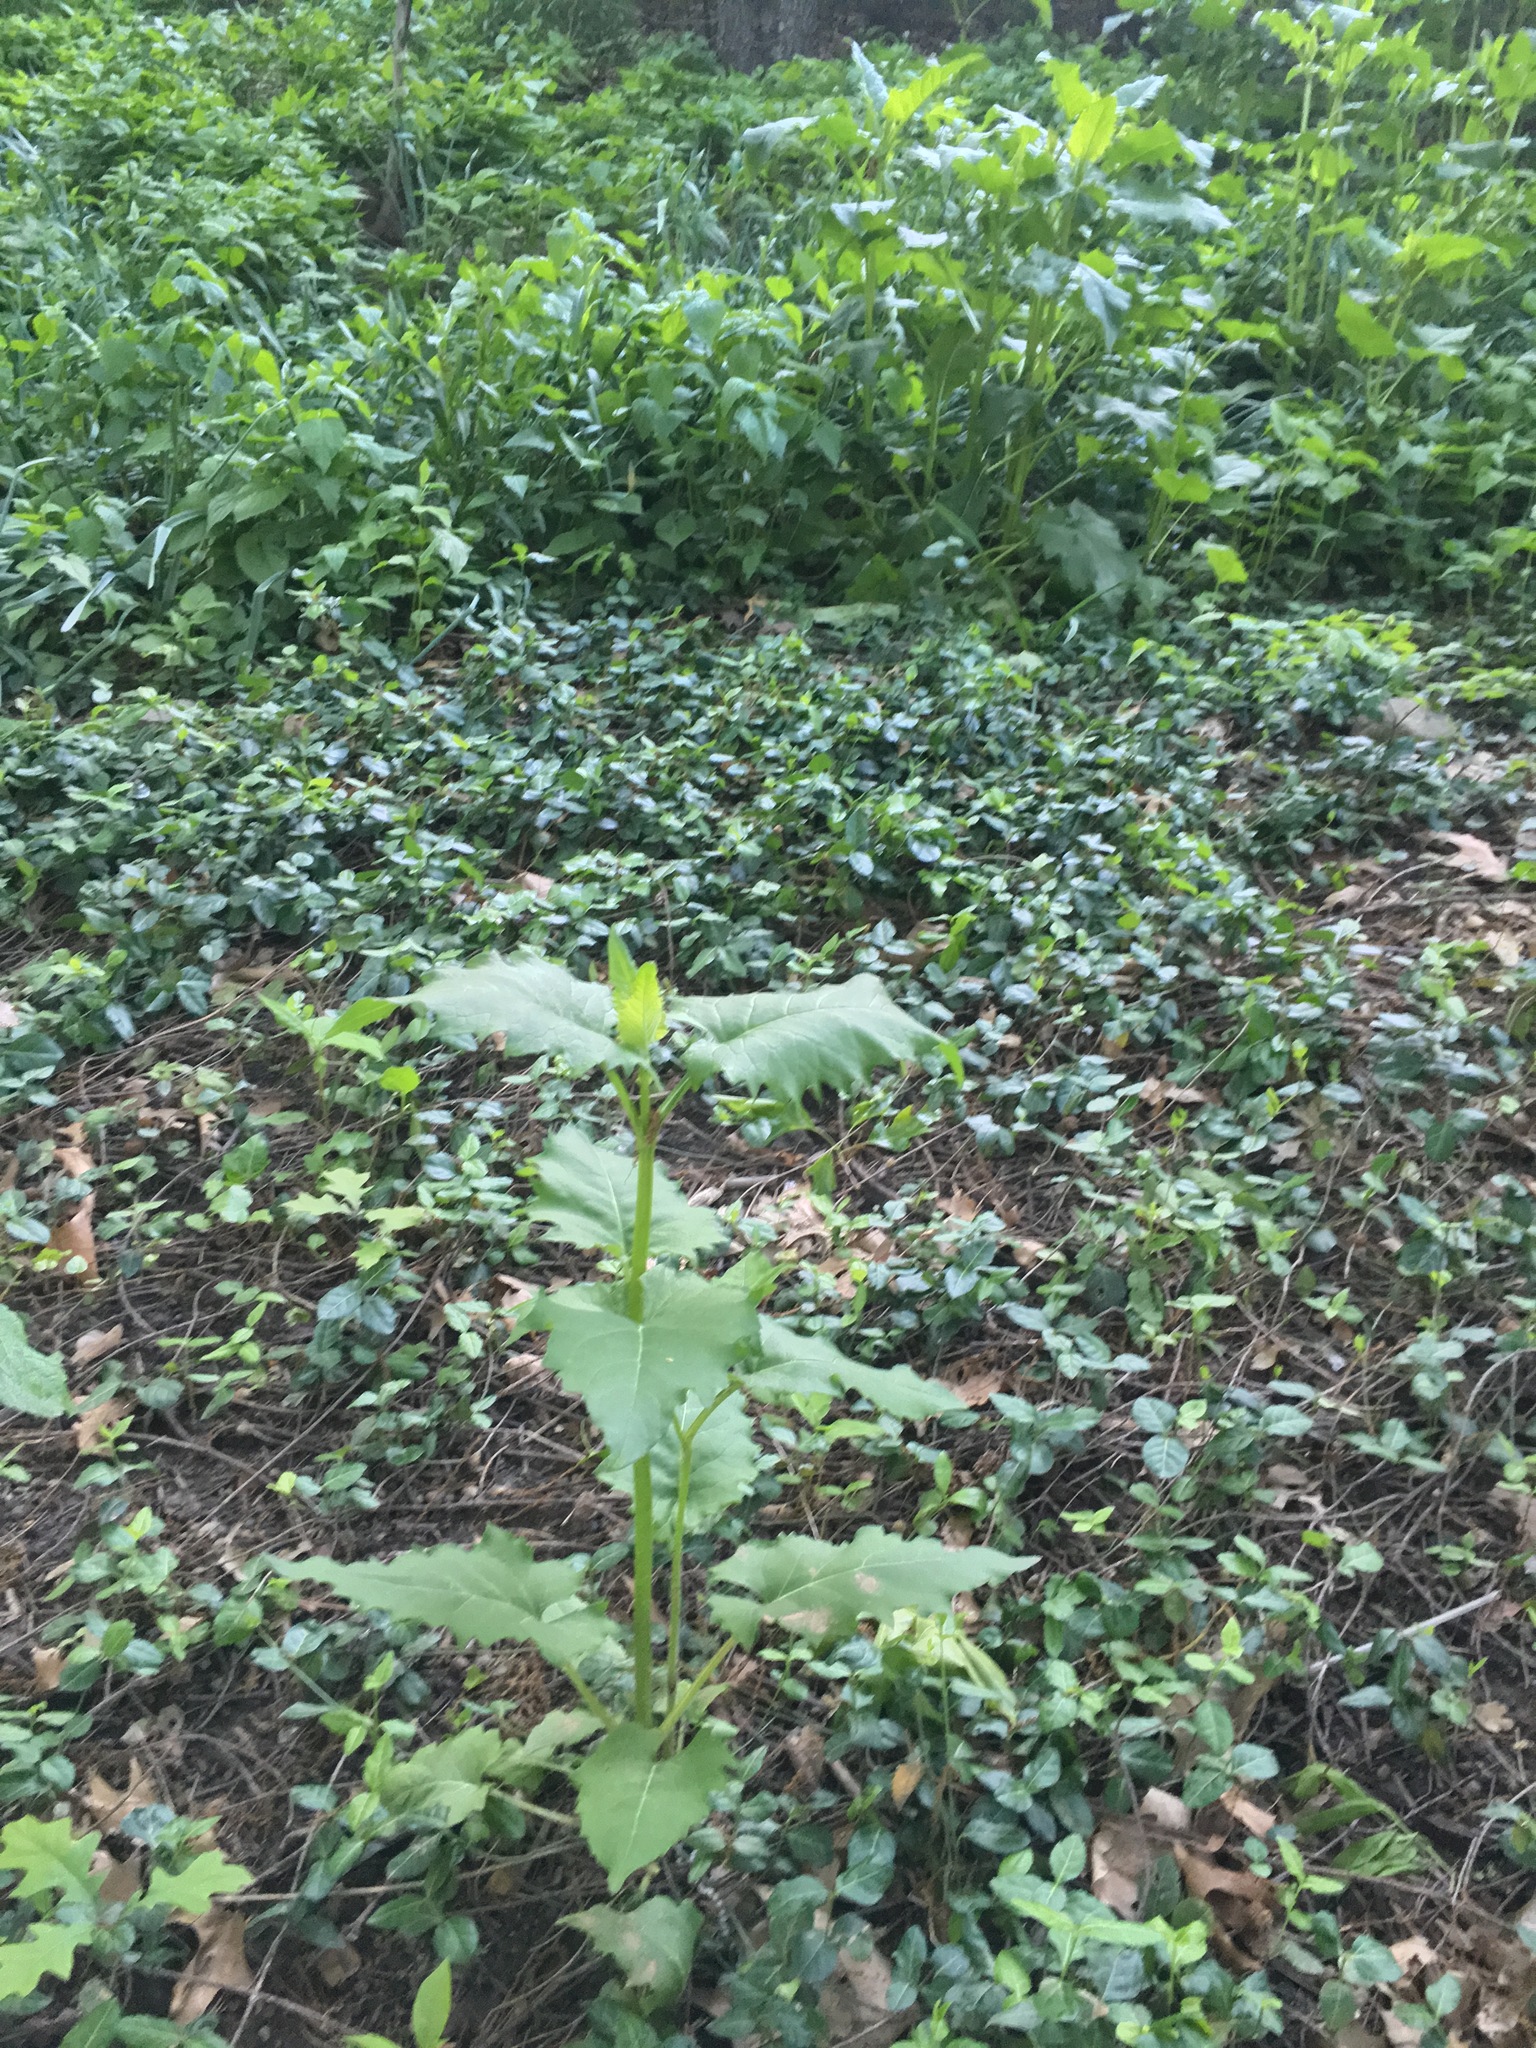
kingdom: Plantae
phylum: Tracheophyta
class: Magnoliopsida
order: Asterales
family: Asteraceae
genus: Silphium
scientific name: Silphium perfoliatum
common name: Cup-plant
